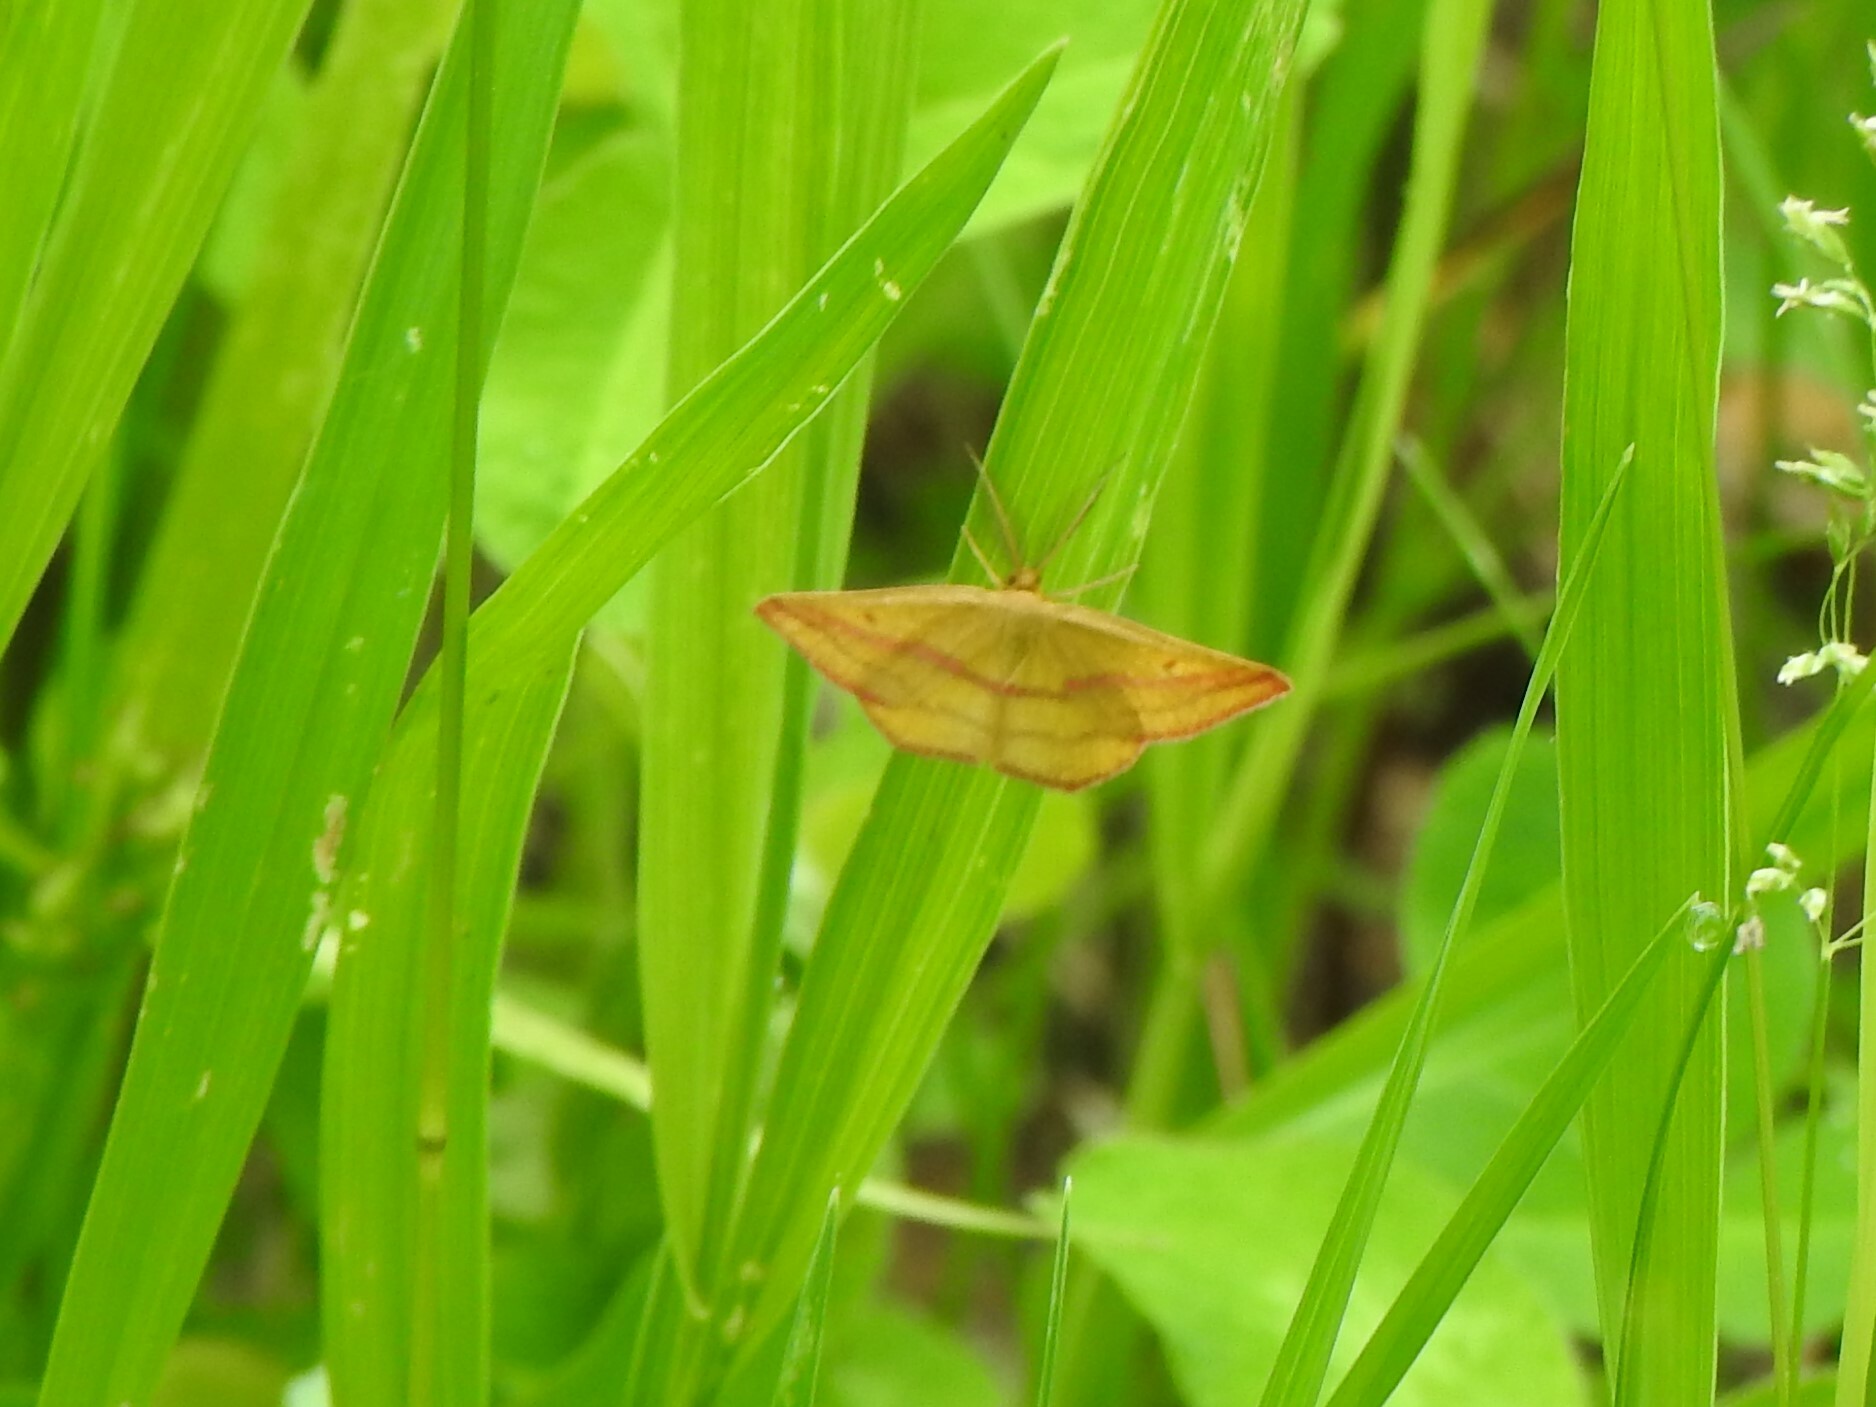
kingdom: Animalia
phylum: Arthropoda
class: Insecta
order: Lepidoptera
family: Geometridae
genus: Haematopis
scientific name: Haematopis grataria
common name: Chickweed geometer
